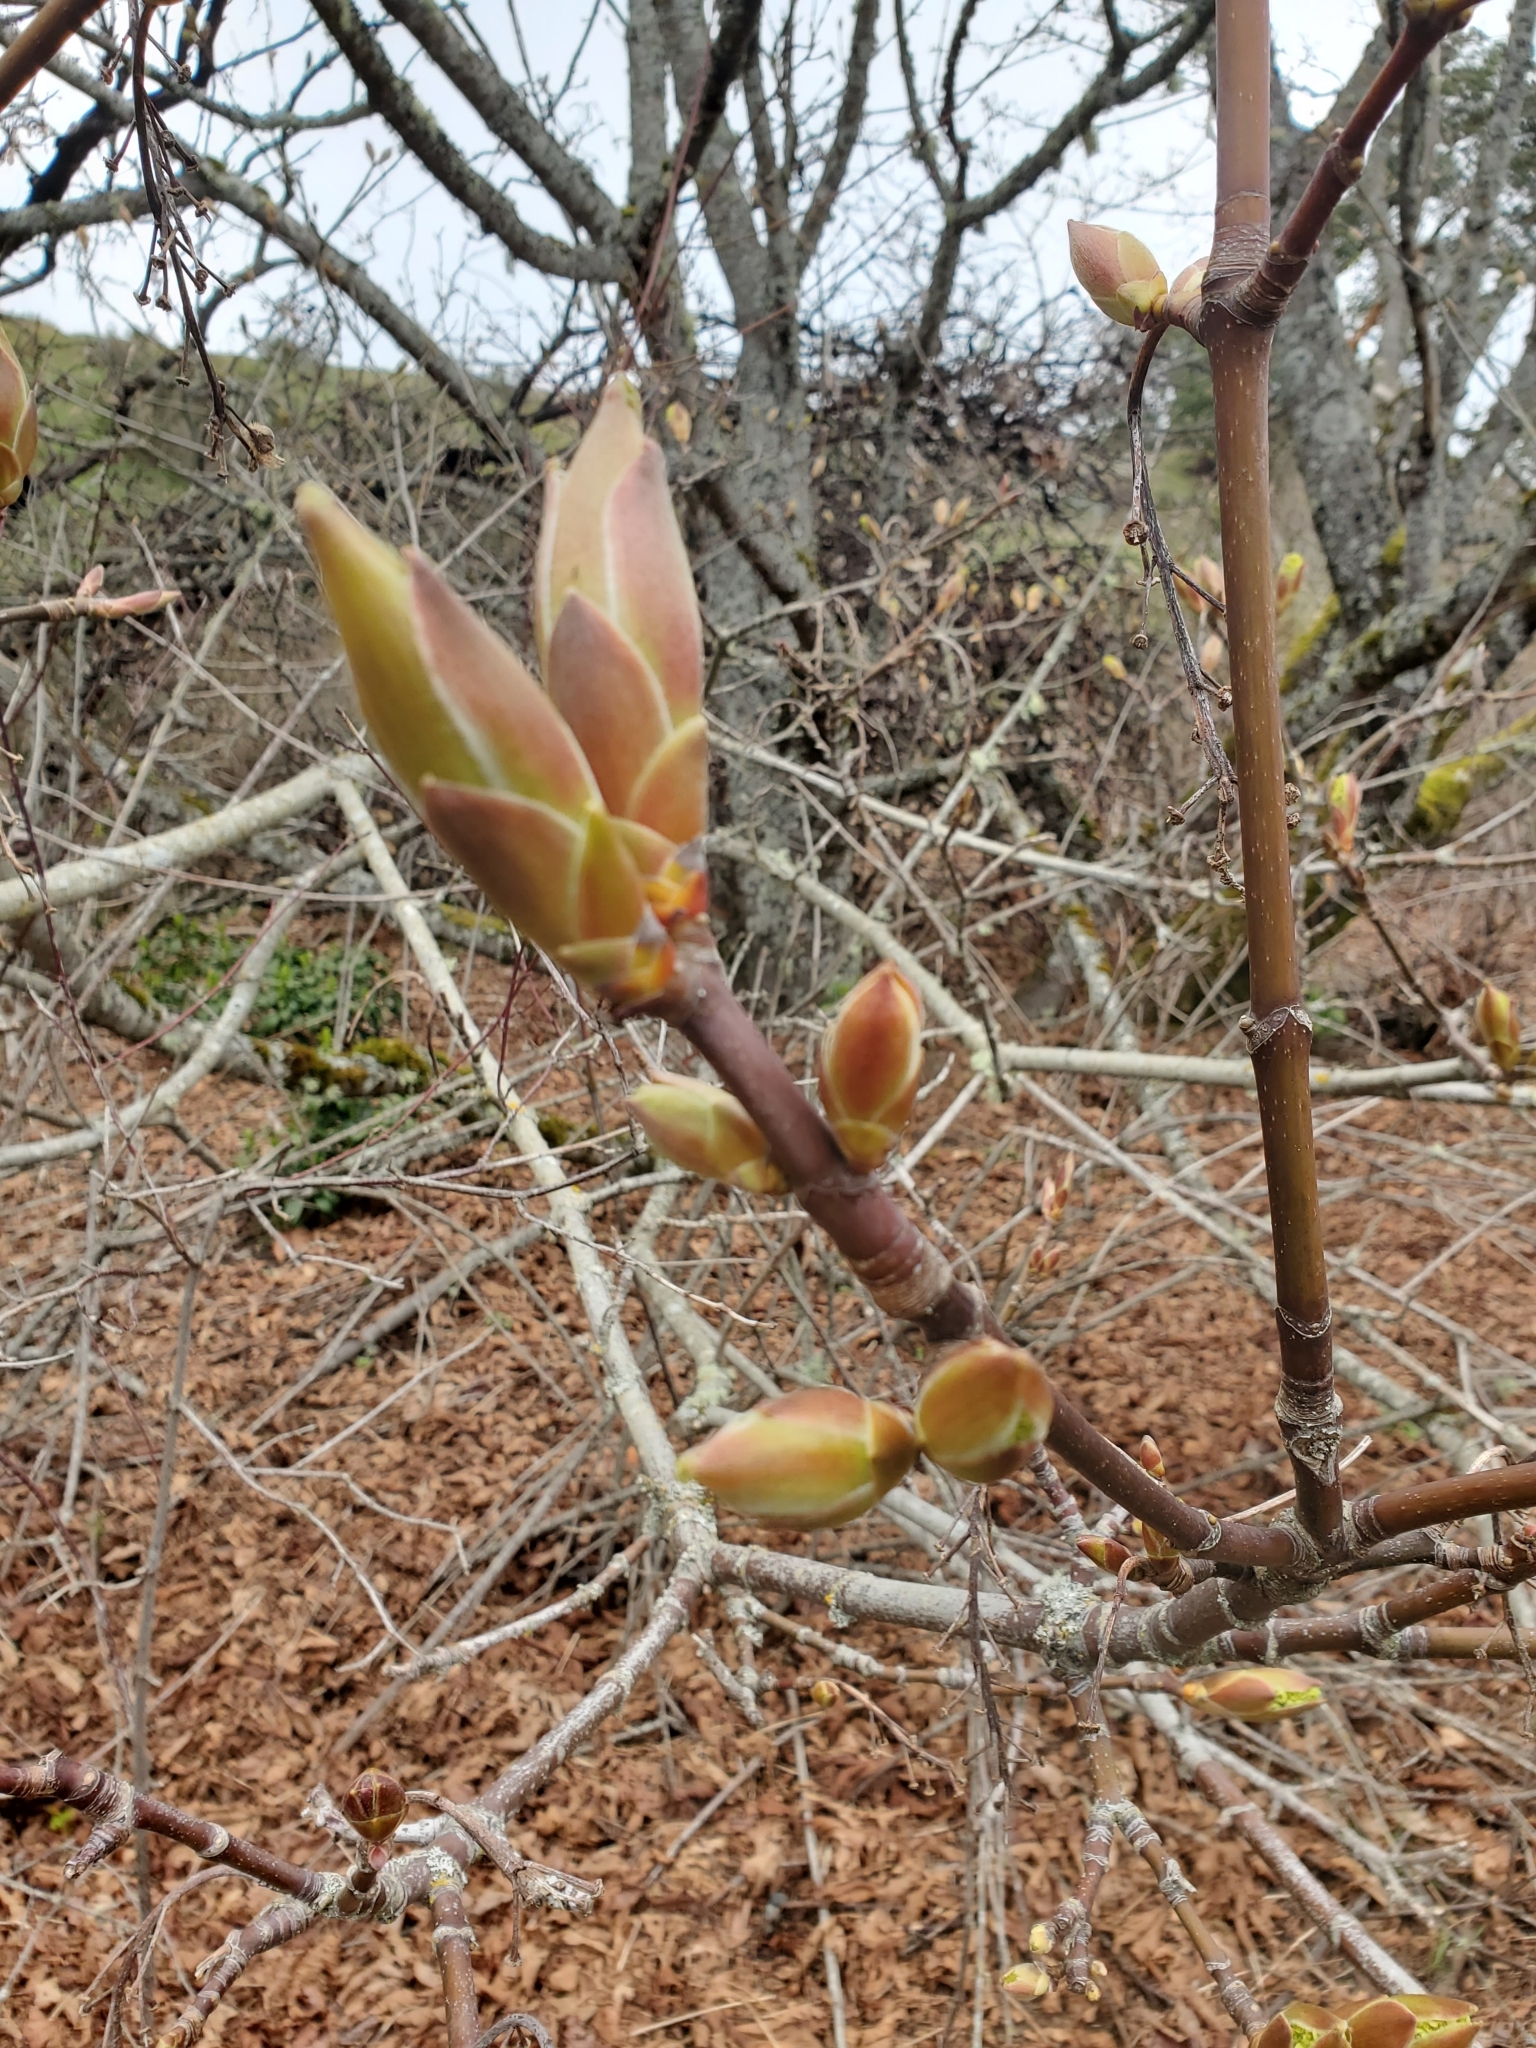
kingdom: Plantae
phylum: Tracheophyta
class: Magnoliopsida
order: Sapindales
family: Sapindaceae
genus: Acer
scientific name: Acer macrophyllum
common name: Oregon maple
